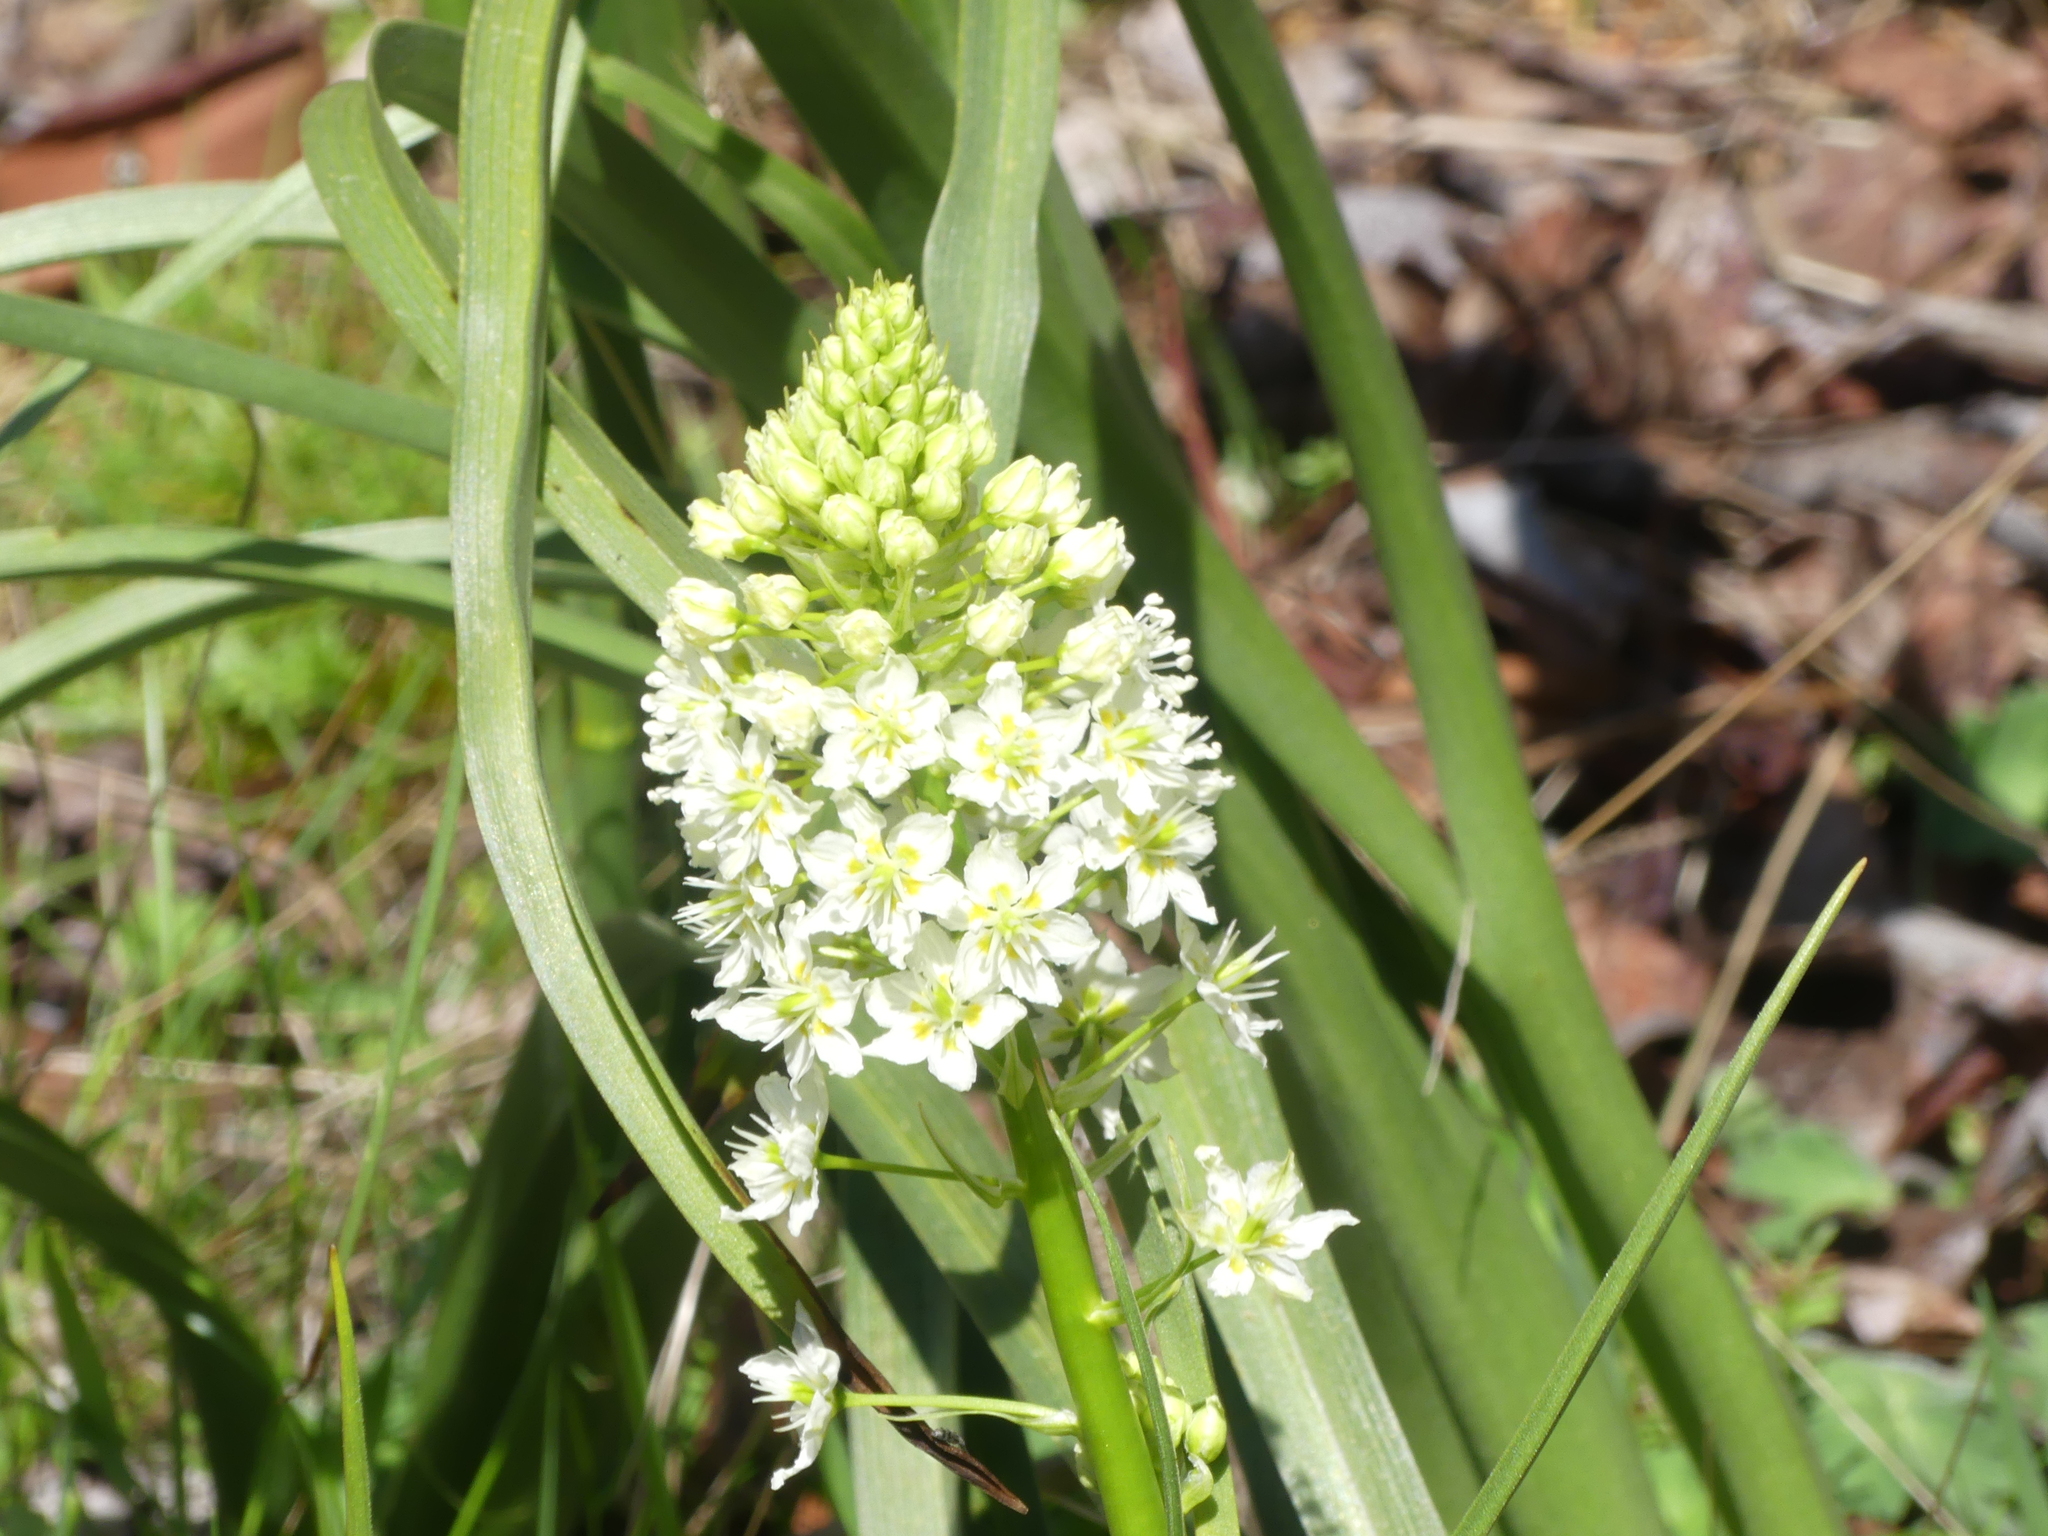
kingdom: Plantae
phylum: Tracheophyta
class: Liliopsida
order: Liliales
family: Melanthiaceae
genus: Toxicoscordion
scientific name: Toxicoscordion venenosum
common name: Meadow death camas
